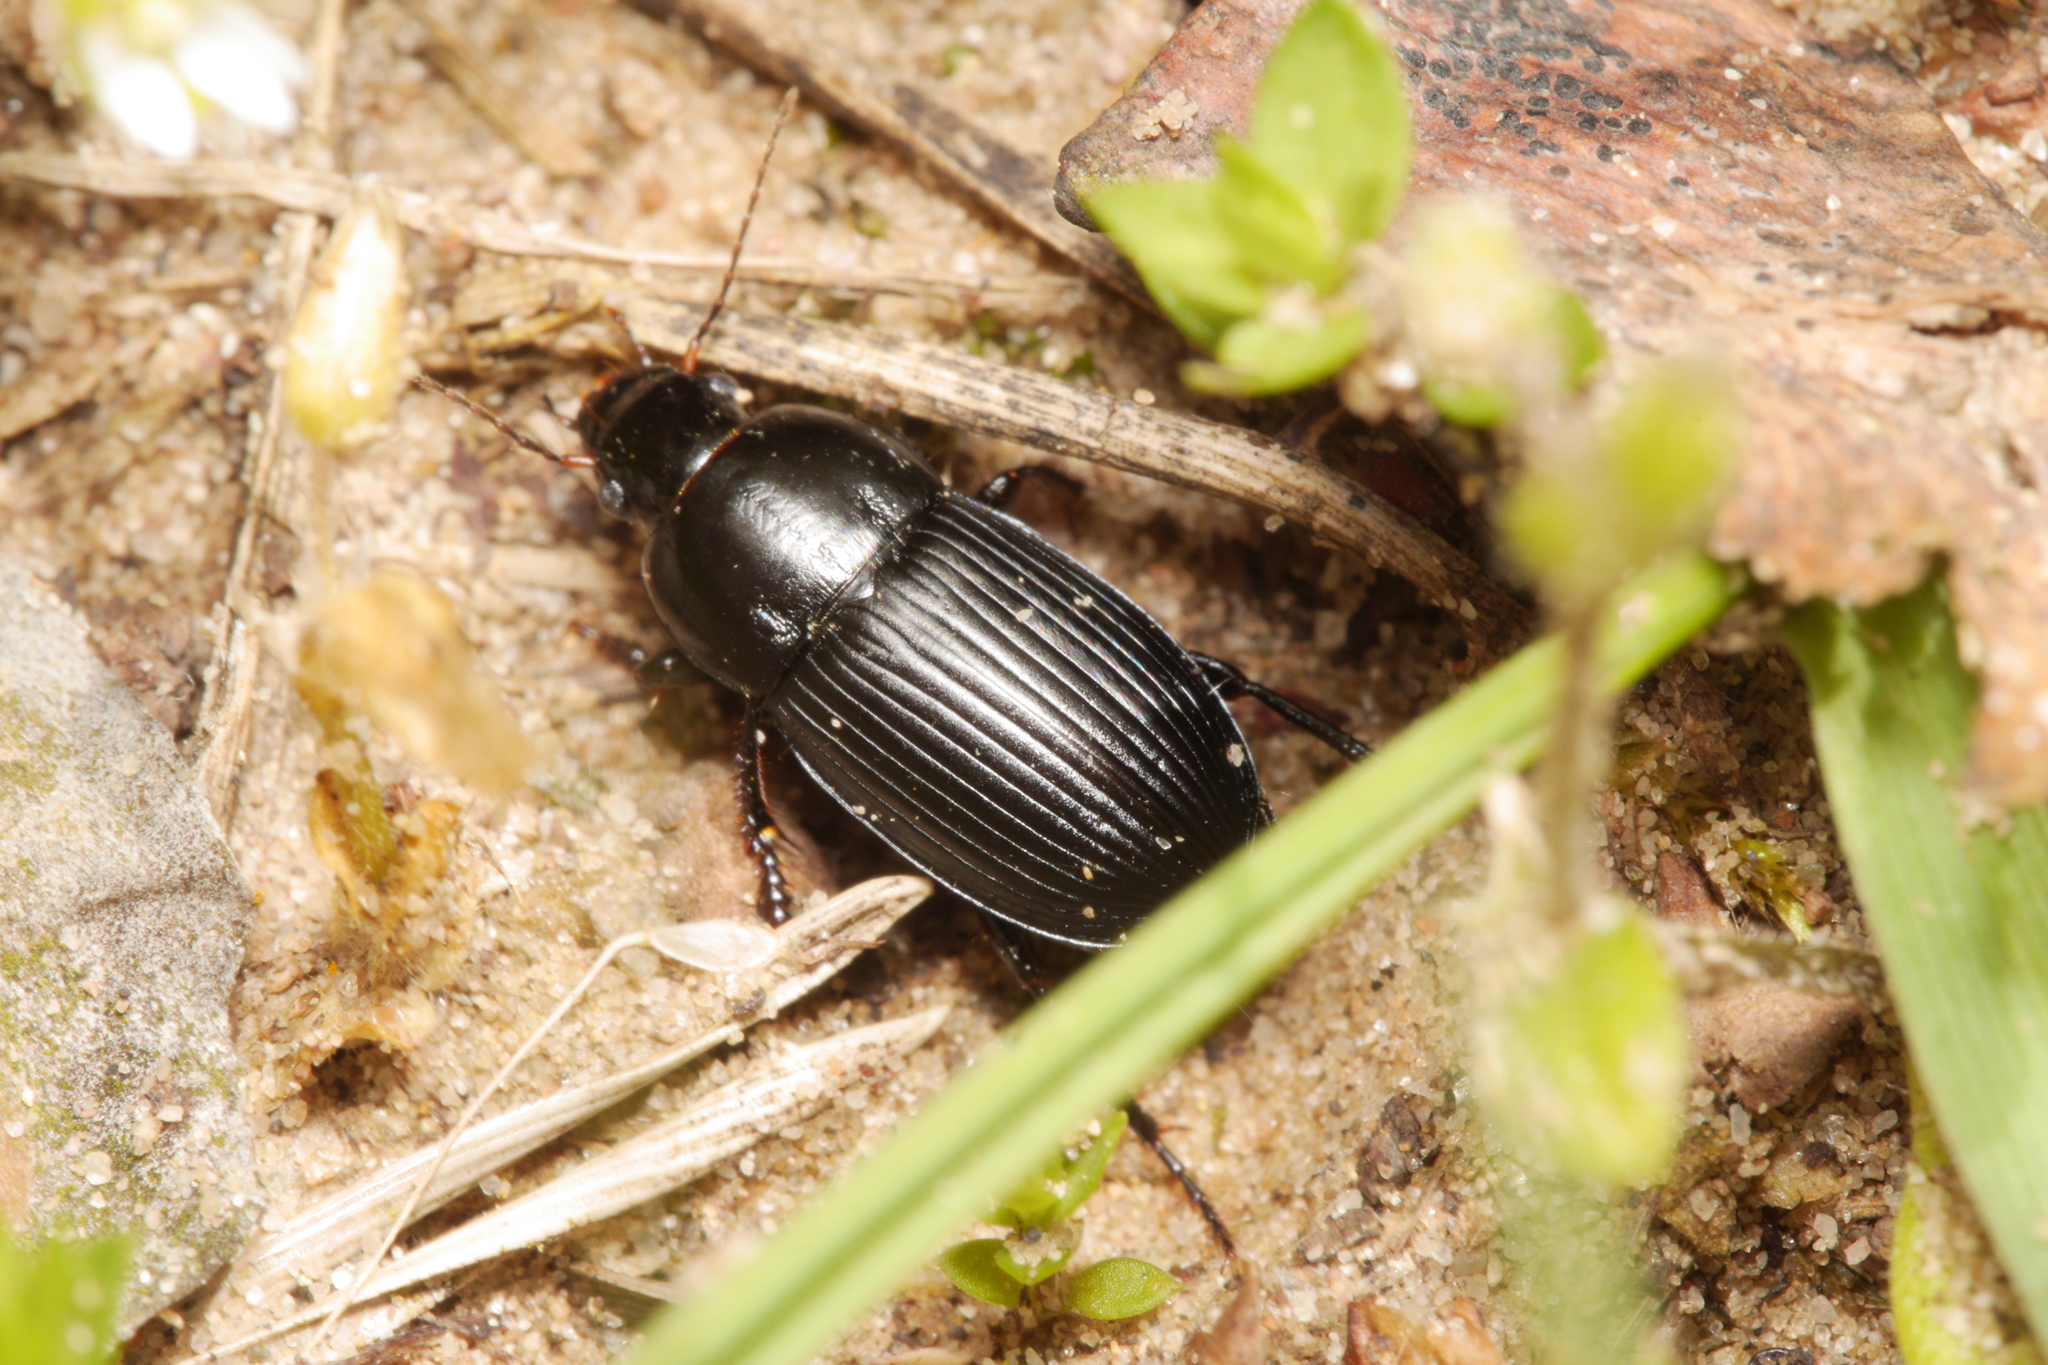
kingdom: Animalia
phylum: Arthropoda
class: Insecta
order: Coleoptera
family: Carabidae
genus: Harpalus
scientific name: Harpalus serripes
